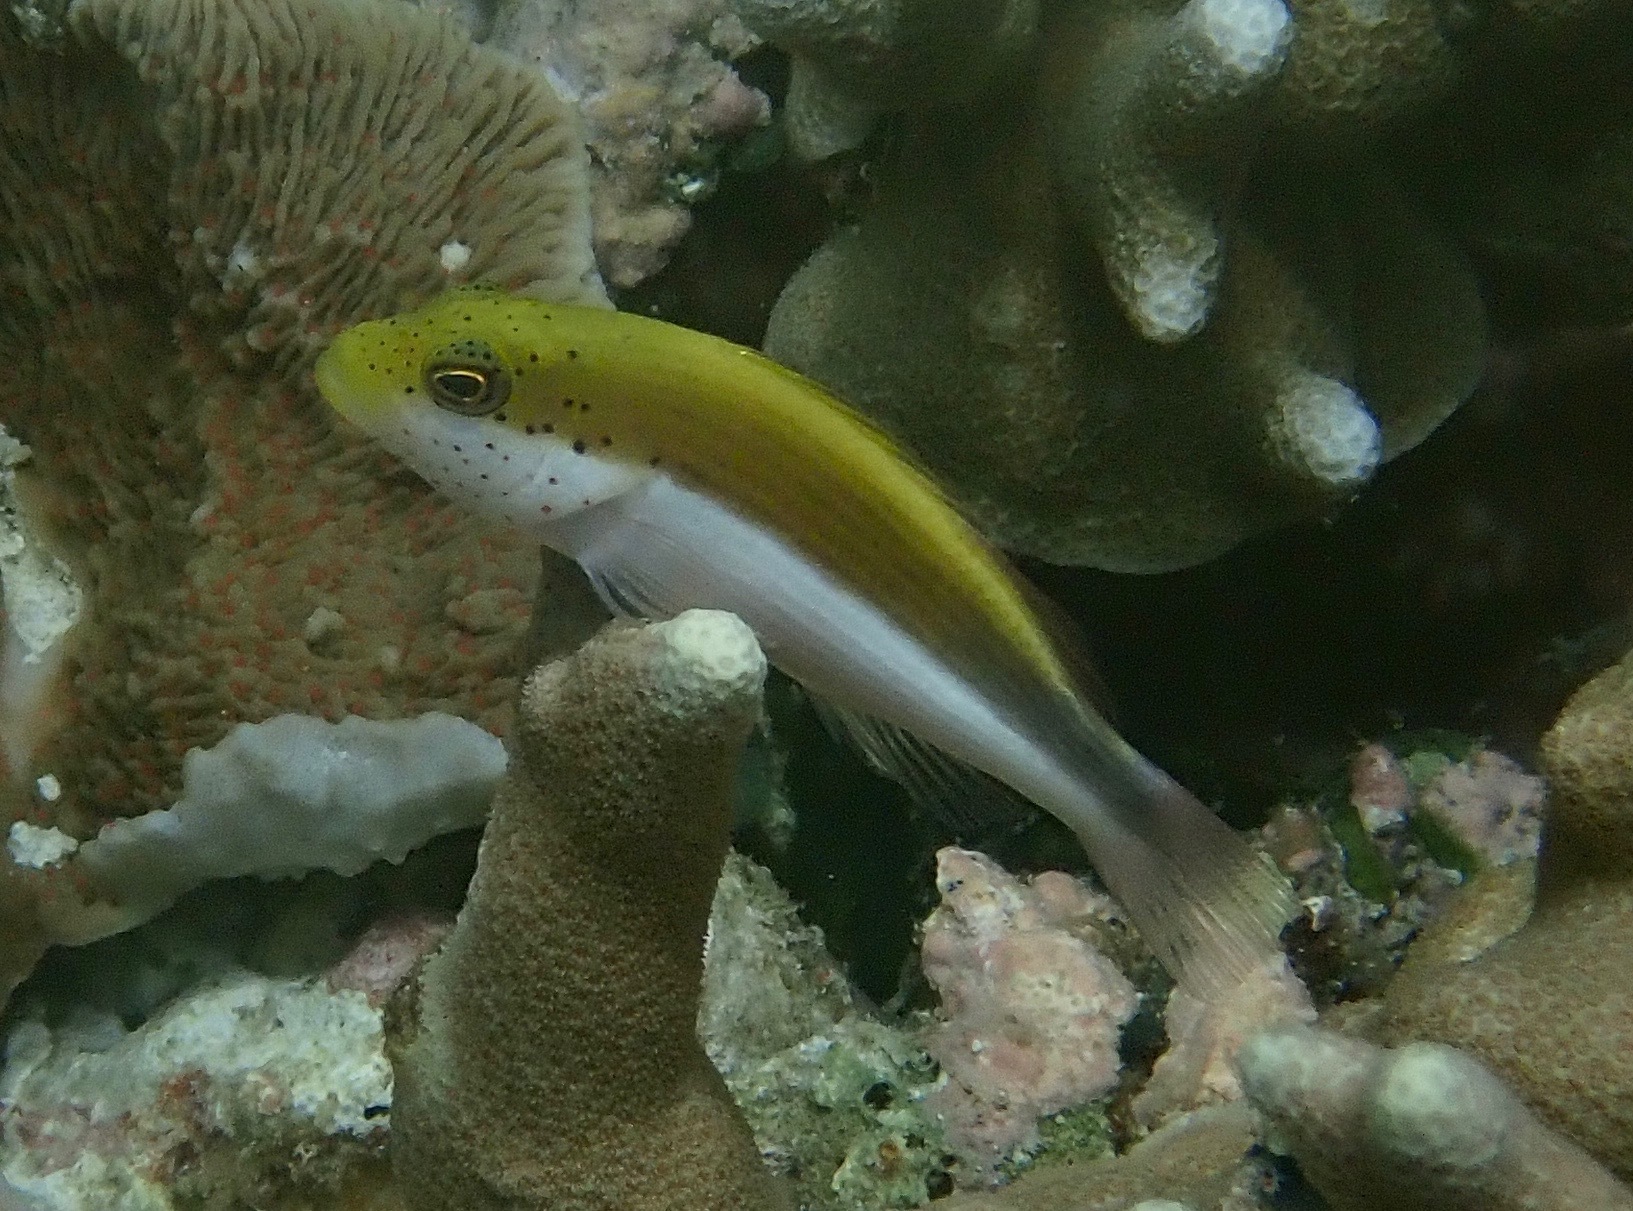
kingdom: Animalia
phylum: Chordata
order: Perciformes
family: Cirrhitidae
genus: Paracirrhites
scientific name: Paracirrhites forsteri
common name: Freckled hawkfish
